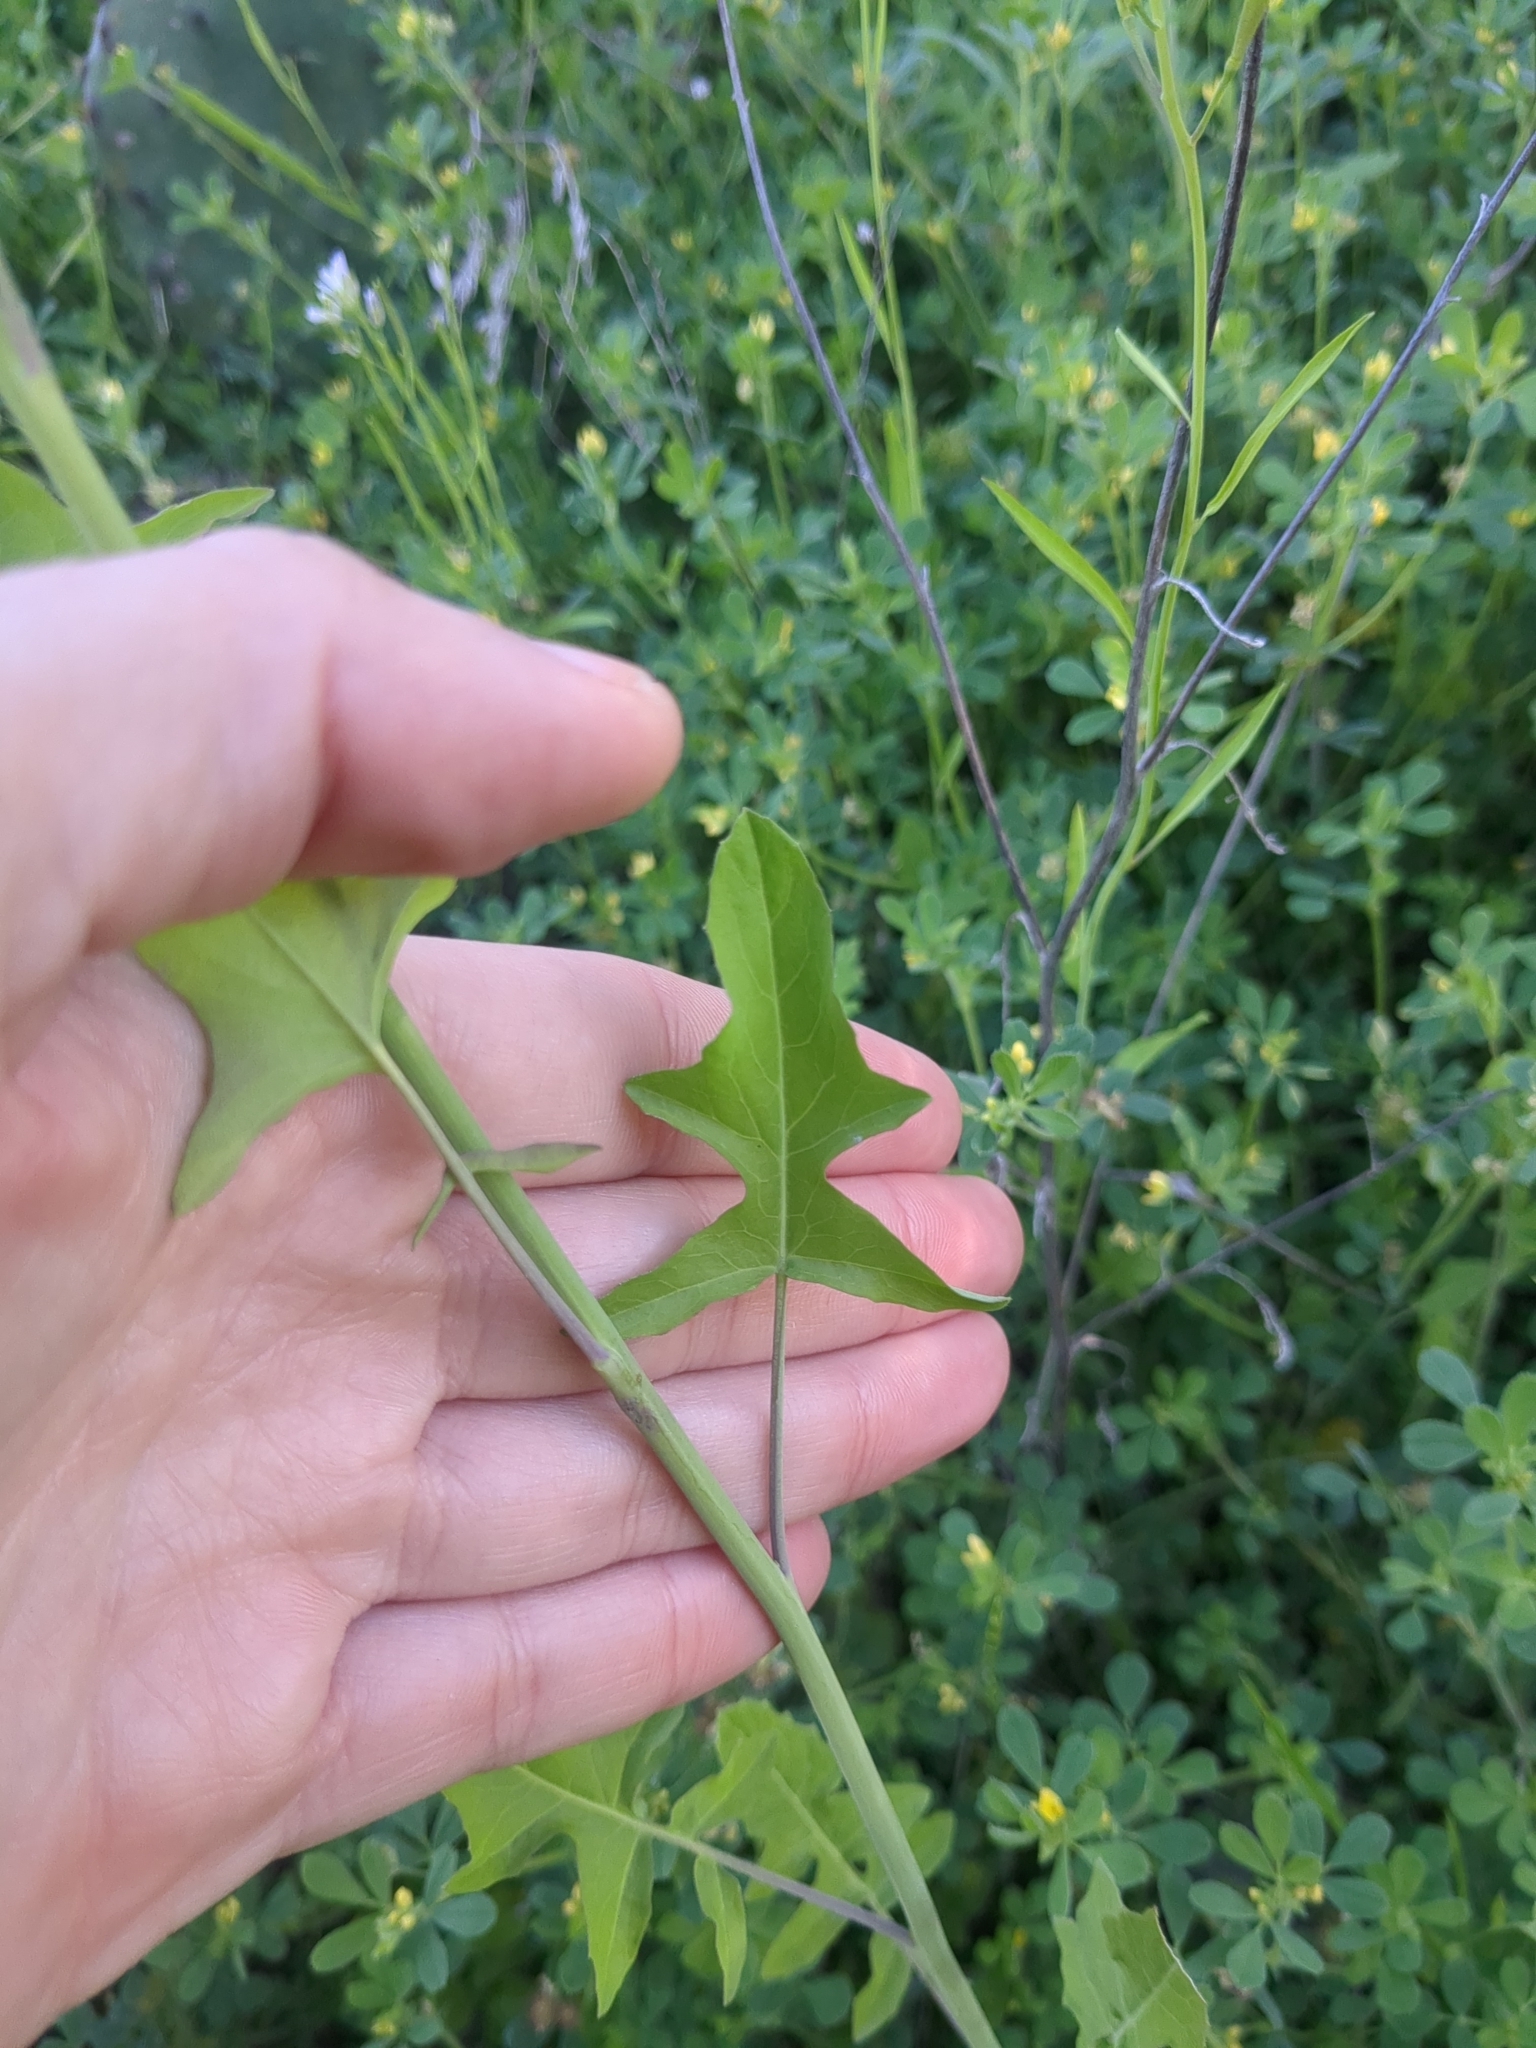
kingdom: Plantae
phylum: Tracheophyta
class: Magnoliopsida
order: Brassicales
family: Brassicaceae
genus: Streptanthus
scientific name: Streptanthus petiolaris
